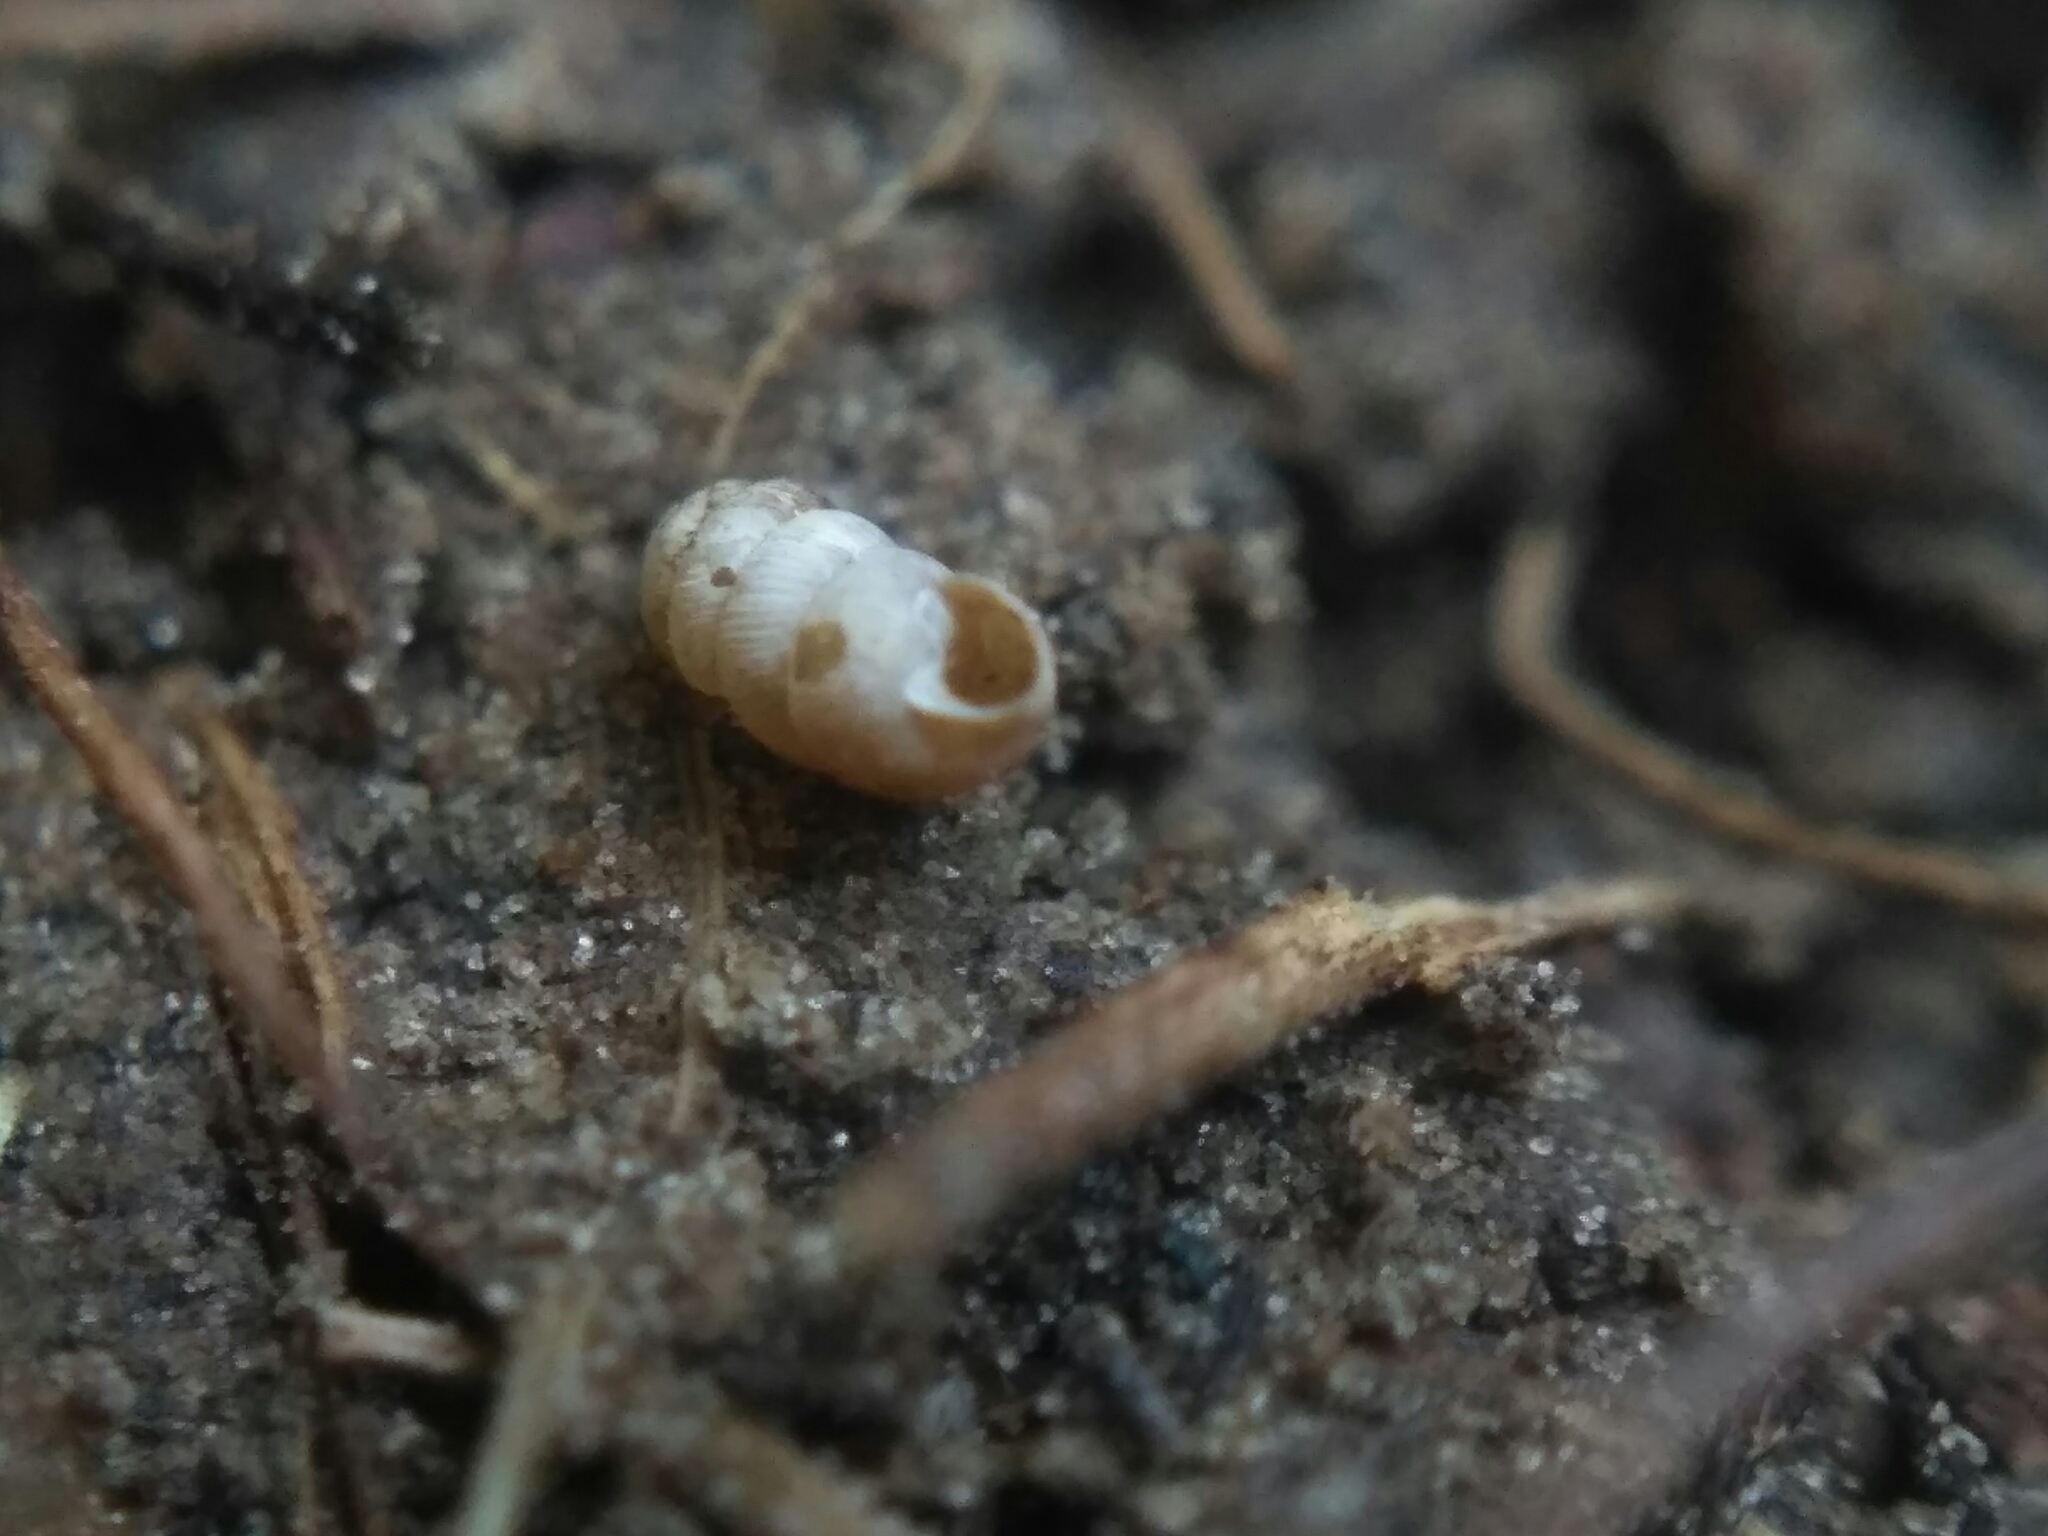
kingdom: Animalia
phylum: Mollusca
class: Gastropoda
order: Stylommatophora
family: Truncatellinidae
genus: Truncatellina
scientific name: Truncatellina cylindrica
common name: Cylindrical whorl snail
